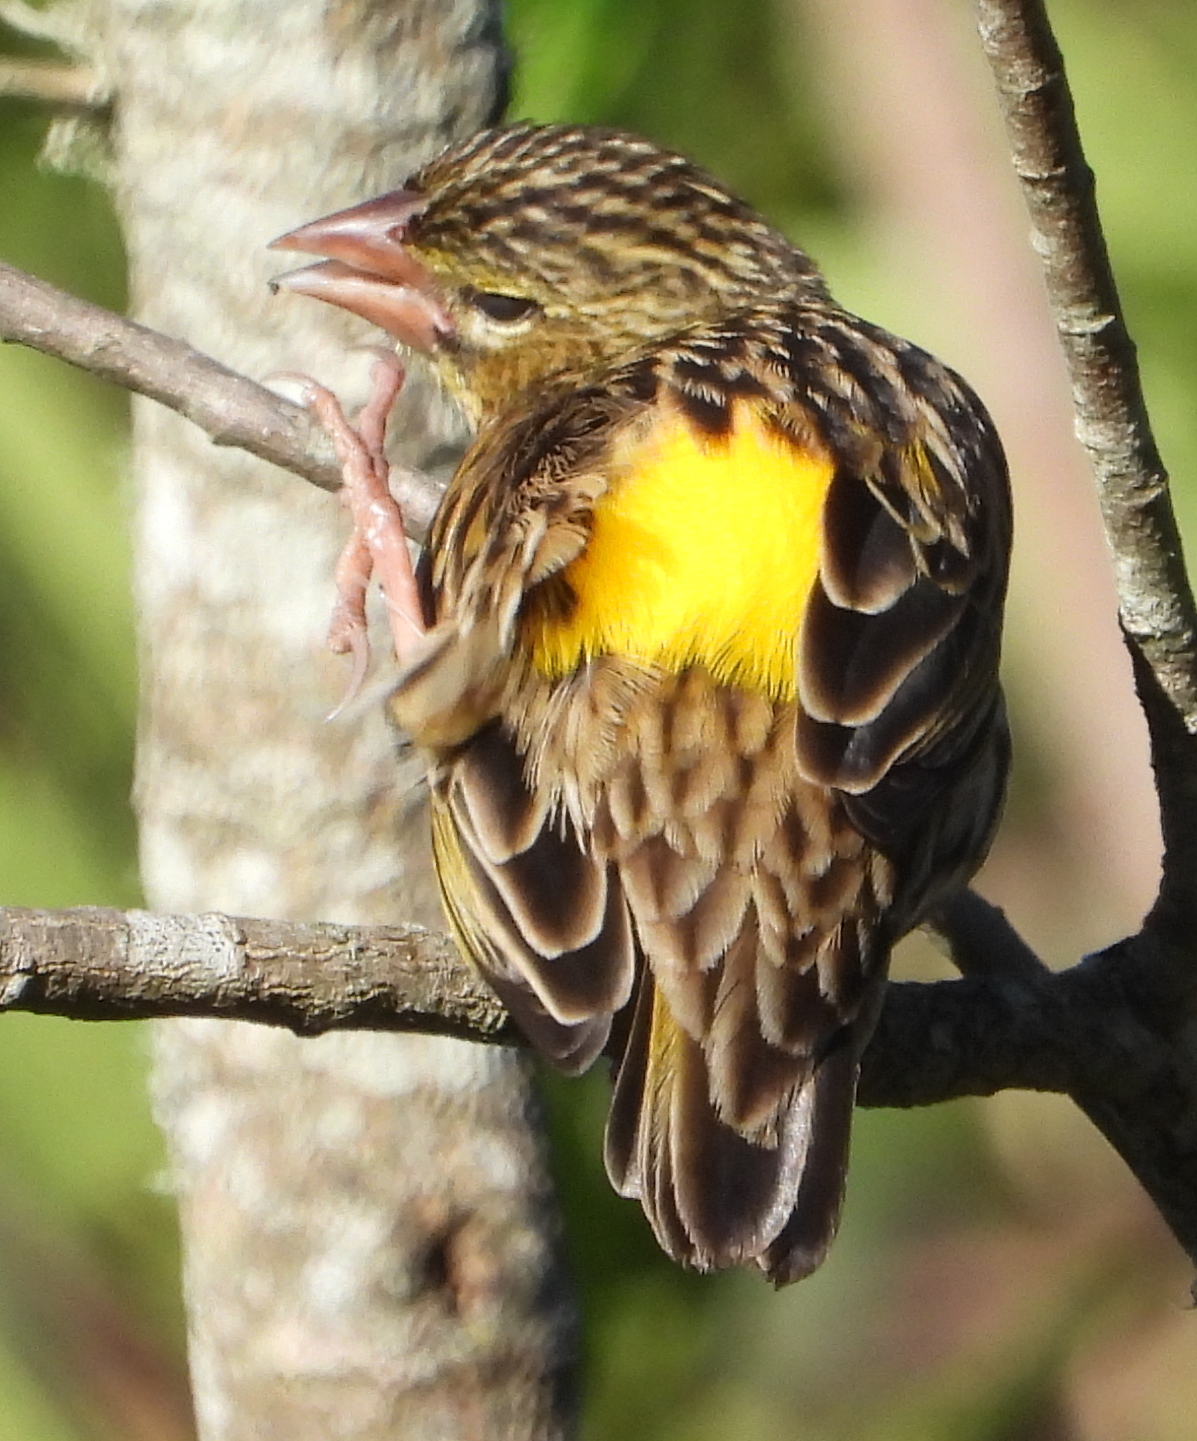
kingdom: Animalia
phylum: Chordata
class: Aves
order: Passeriformes
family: Ploceidae
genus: Euplectes
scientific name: Euplectes capensis
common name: Yellow bishop
